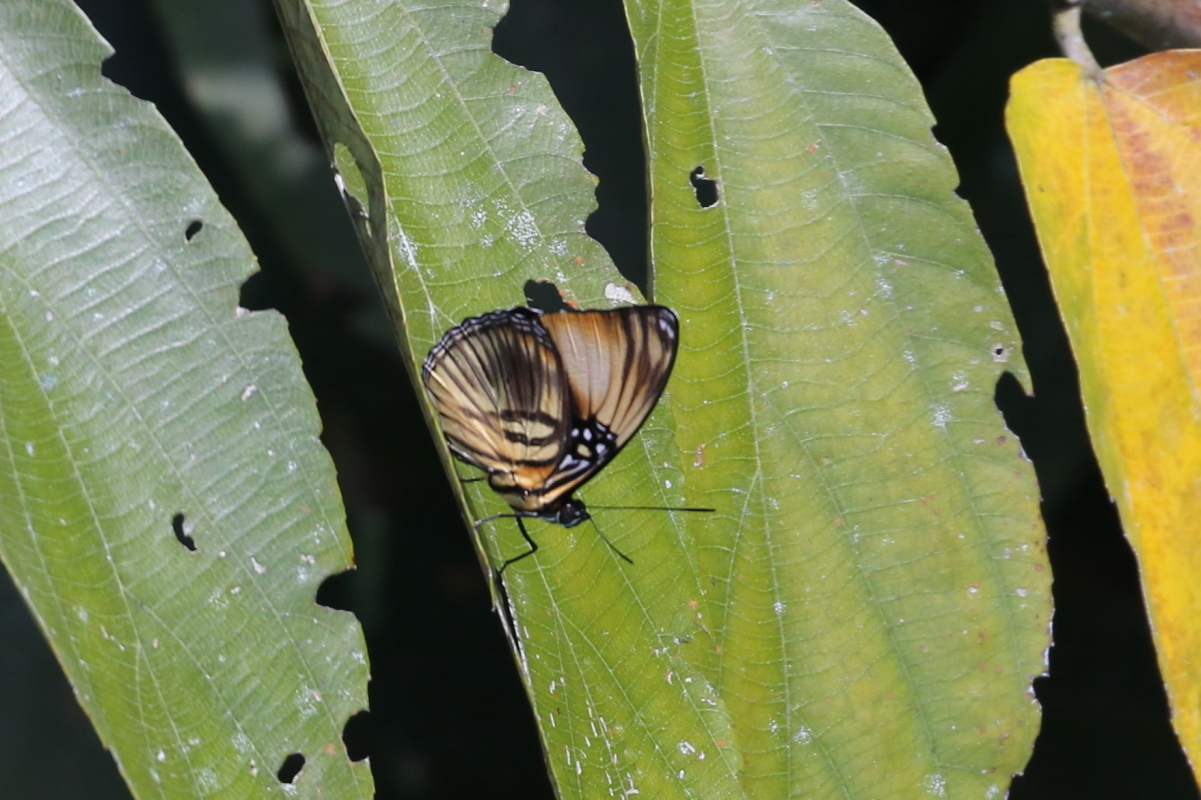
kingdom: Animalia
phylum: Arthropoda
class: Insecta
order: Lepidoptera
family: Nymphalidae
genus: Limenitis
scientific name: Limenitis melanthe
